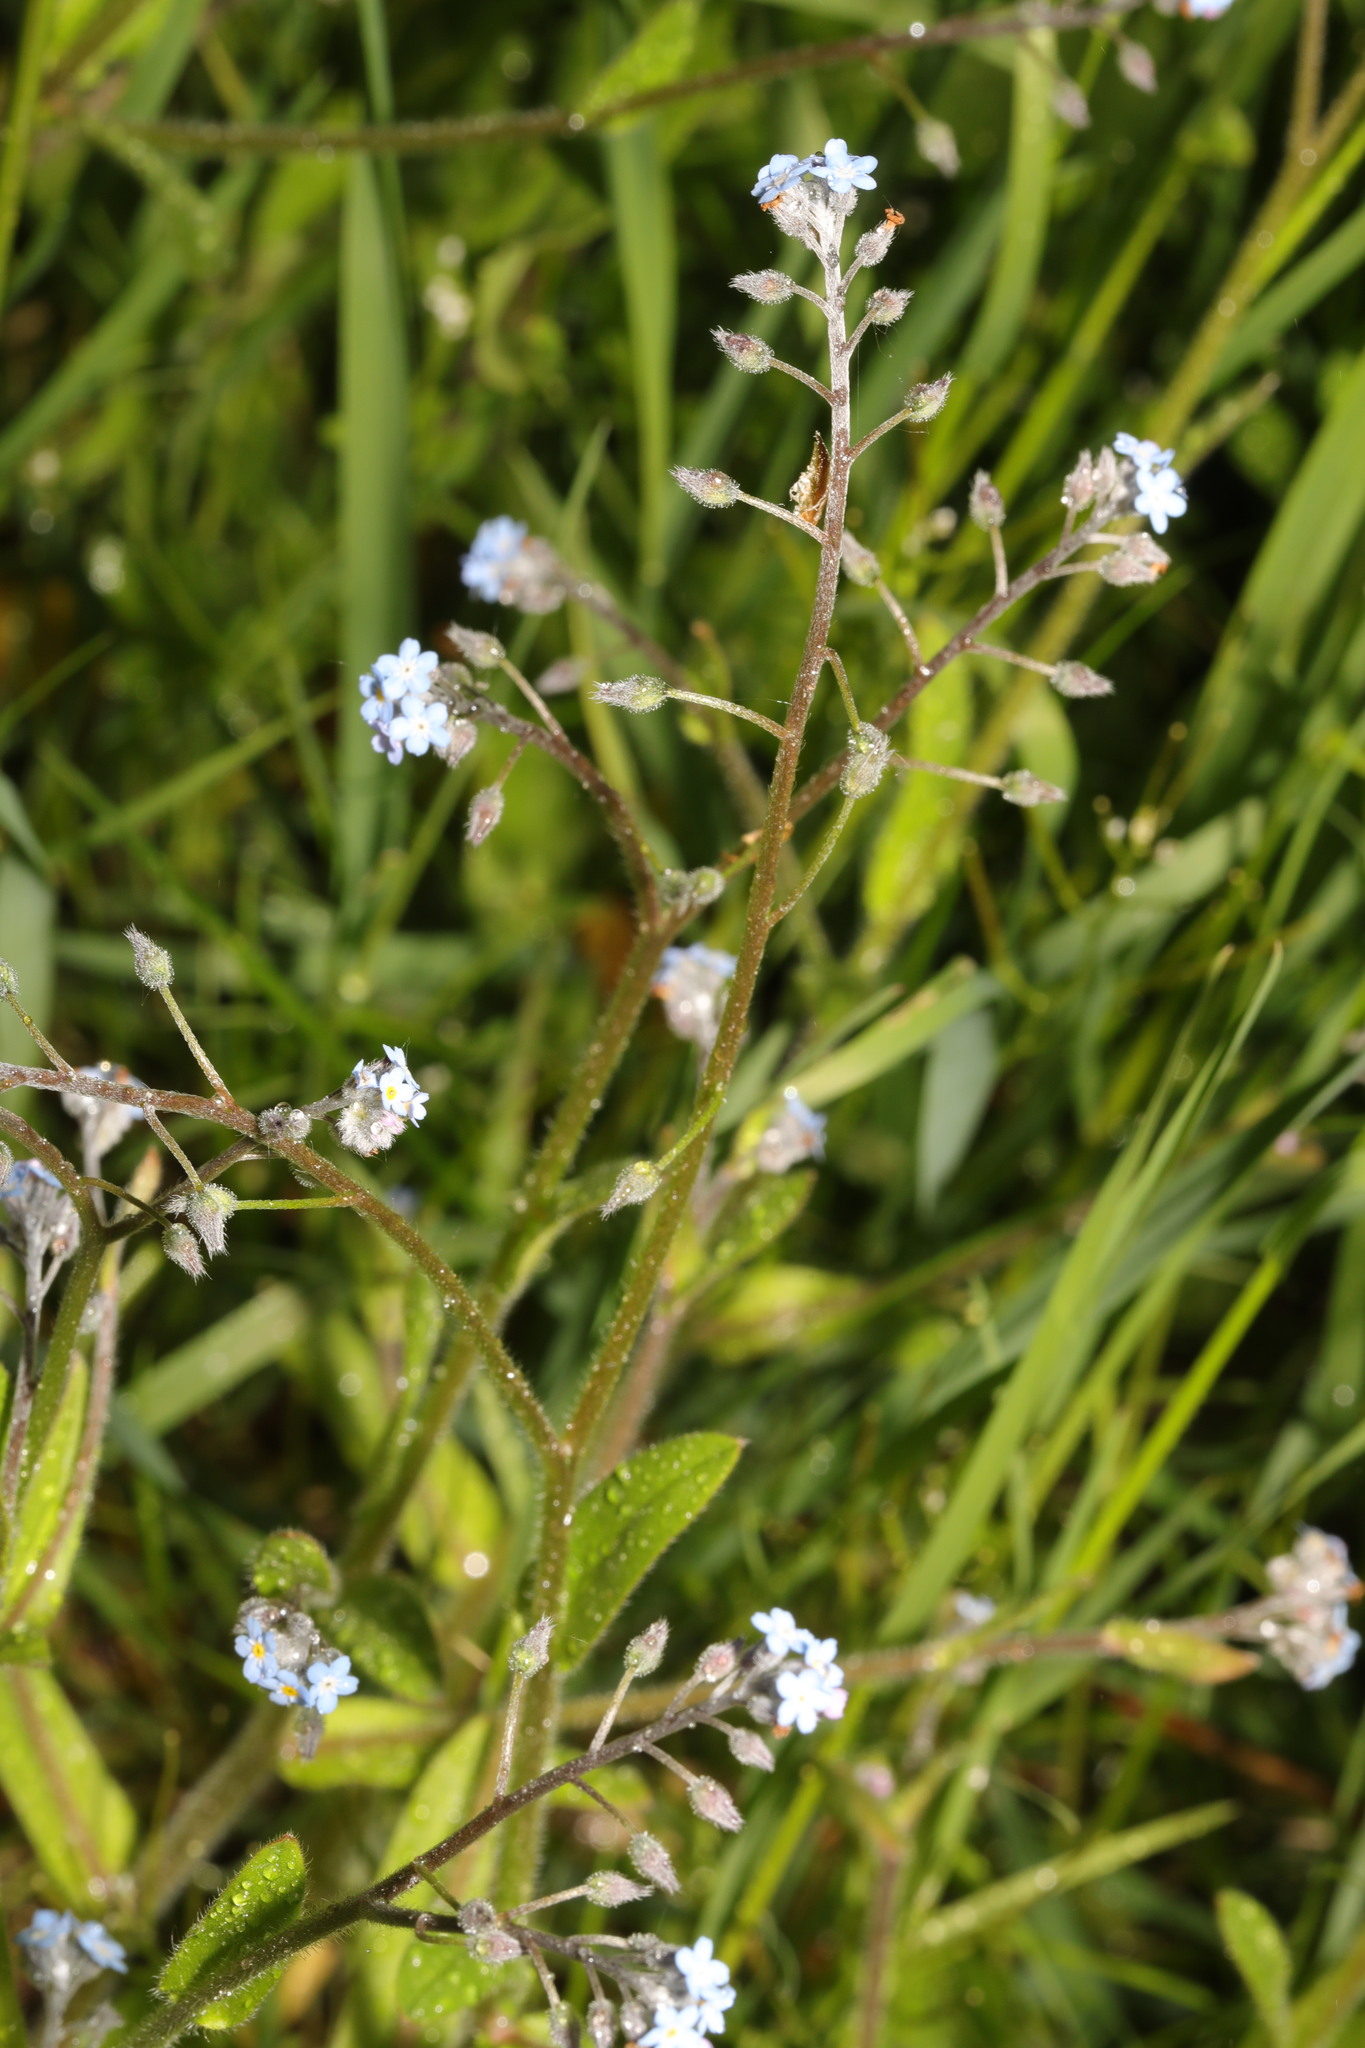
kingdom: Plantae
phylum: Tracheophyta
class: Magnoliopsida
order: Boraginales
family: Boraginaceae
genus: Myosotis
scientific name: Myosotis arvensis
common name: Field forget-me-not
